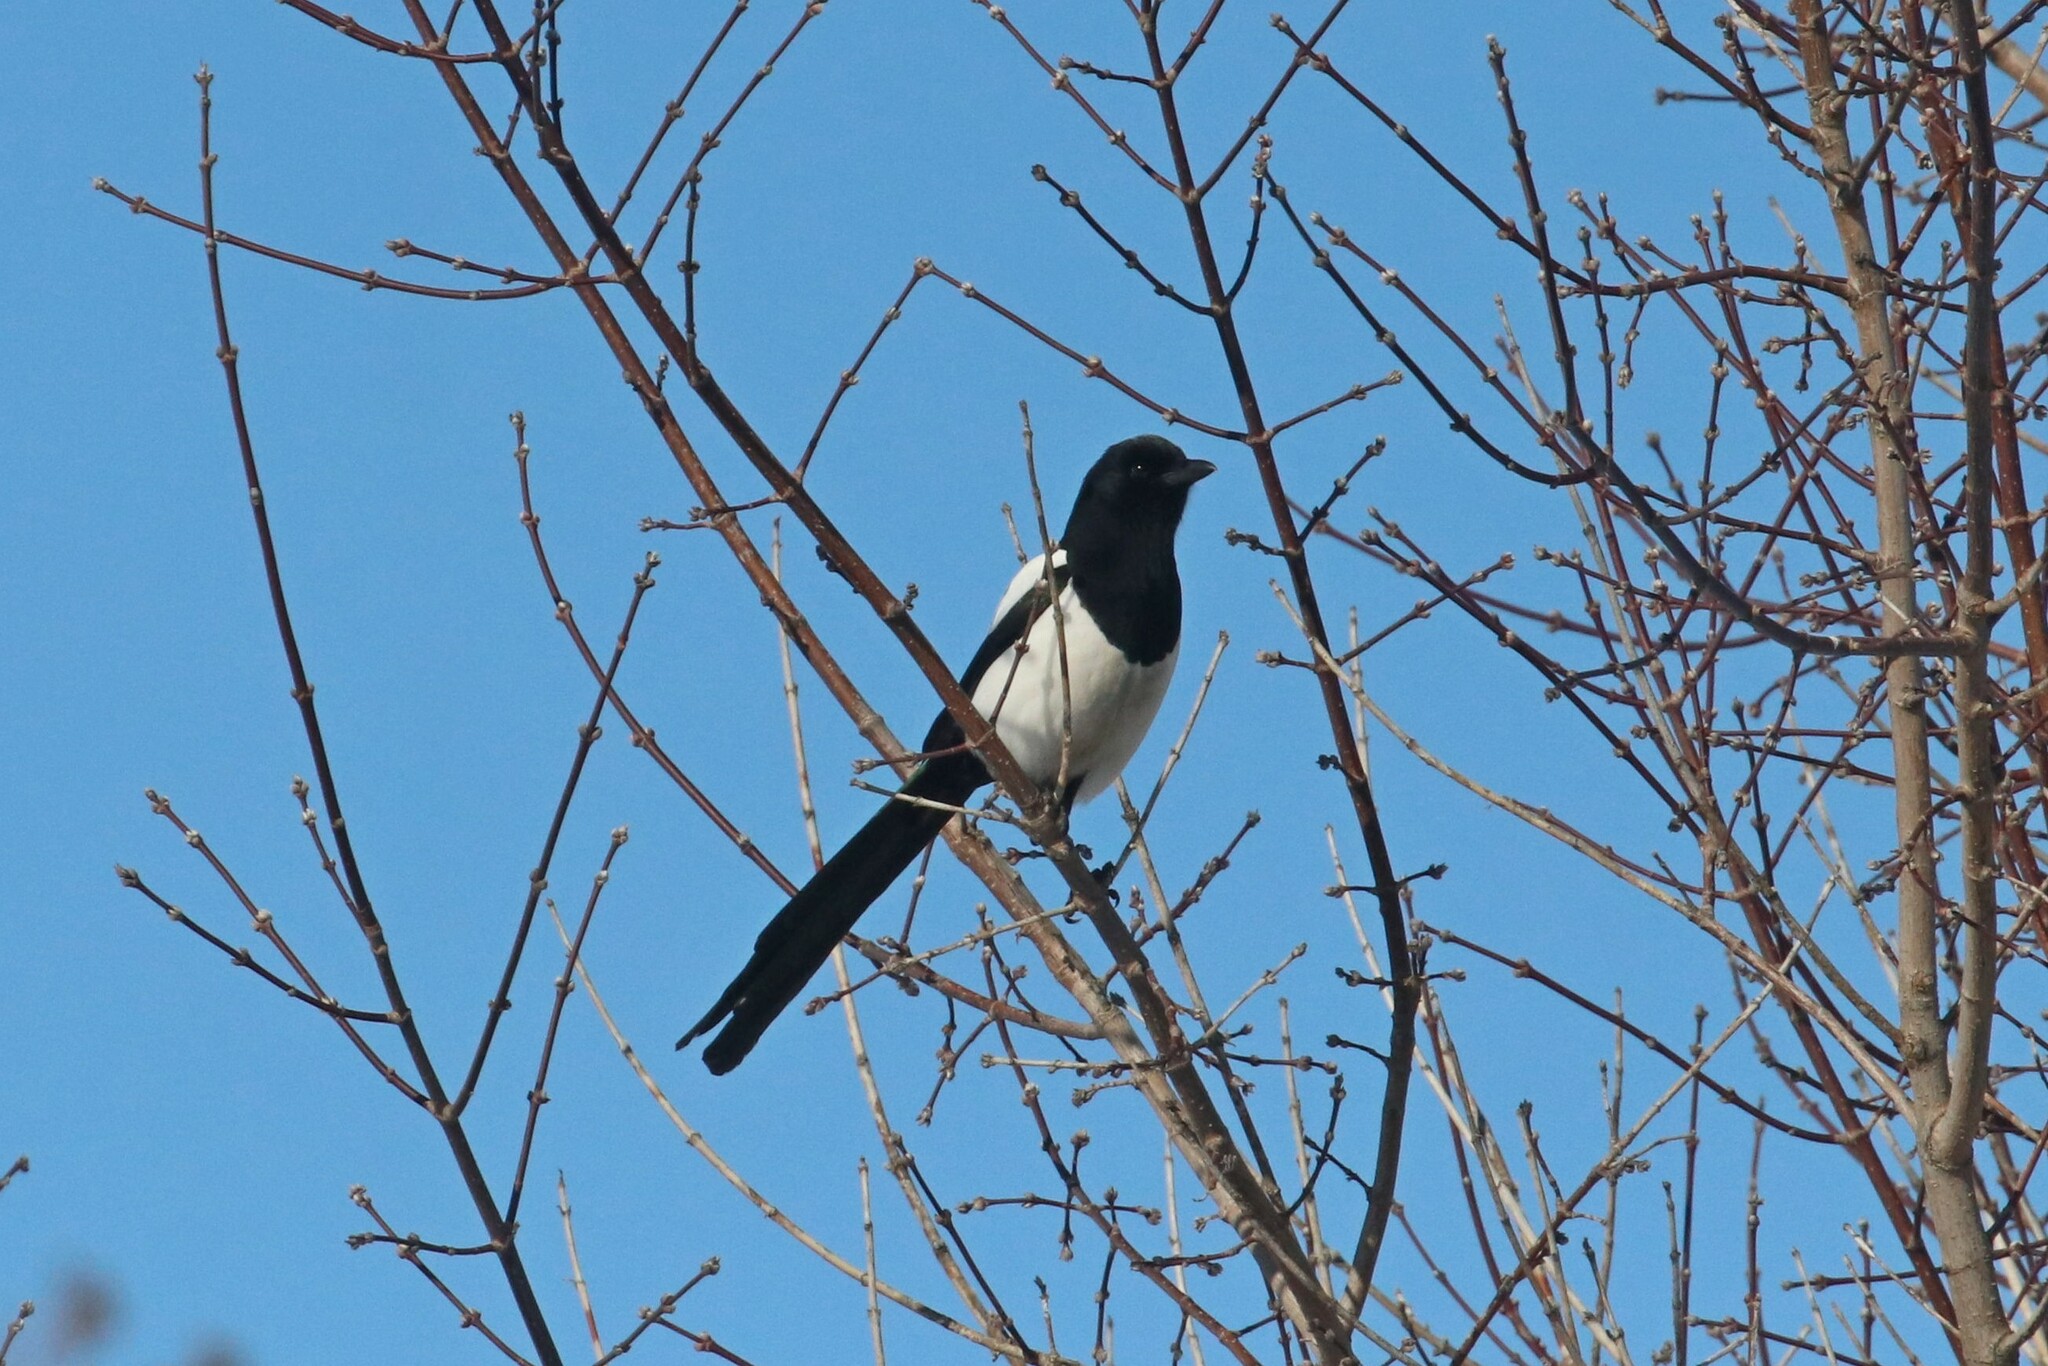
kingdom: Animalia
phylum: Chordata
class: Aves
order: Passeriformes
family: Corvidae
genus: Pica
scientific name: Pica pica
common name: Eurasian magpie
